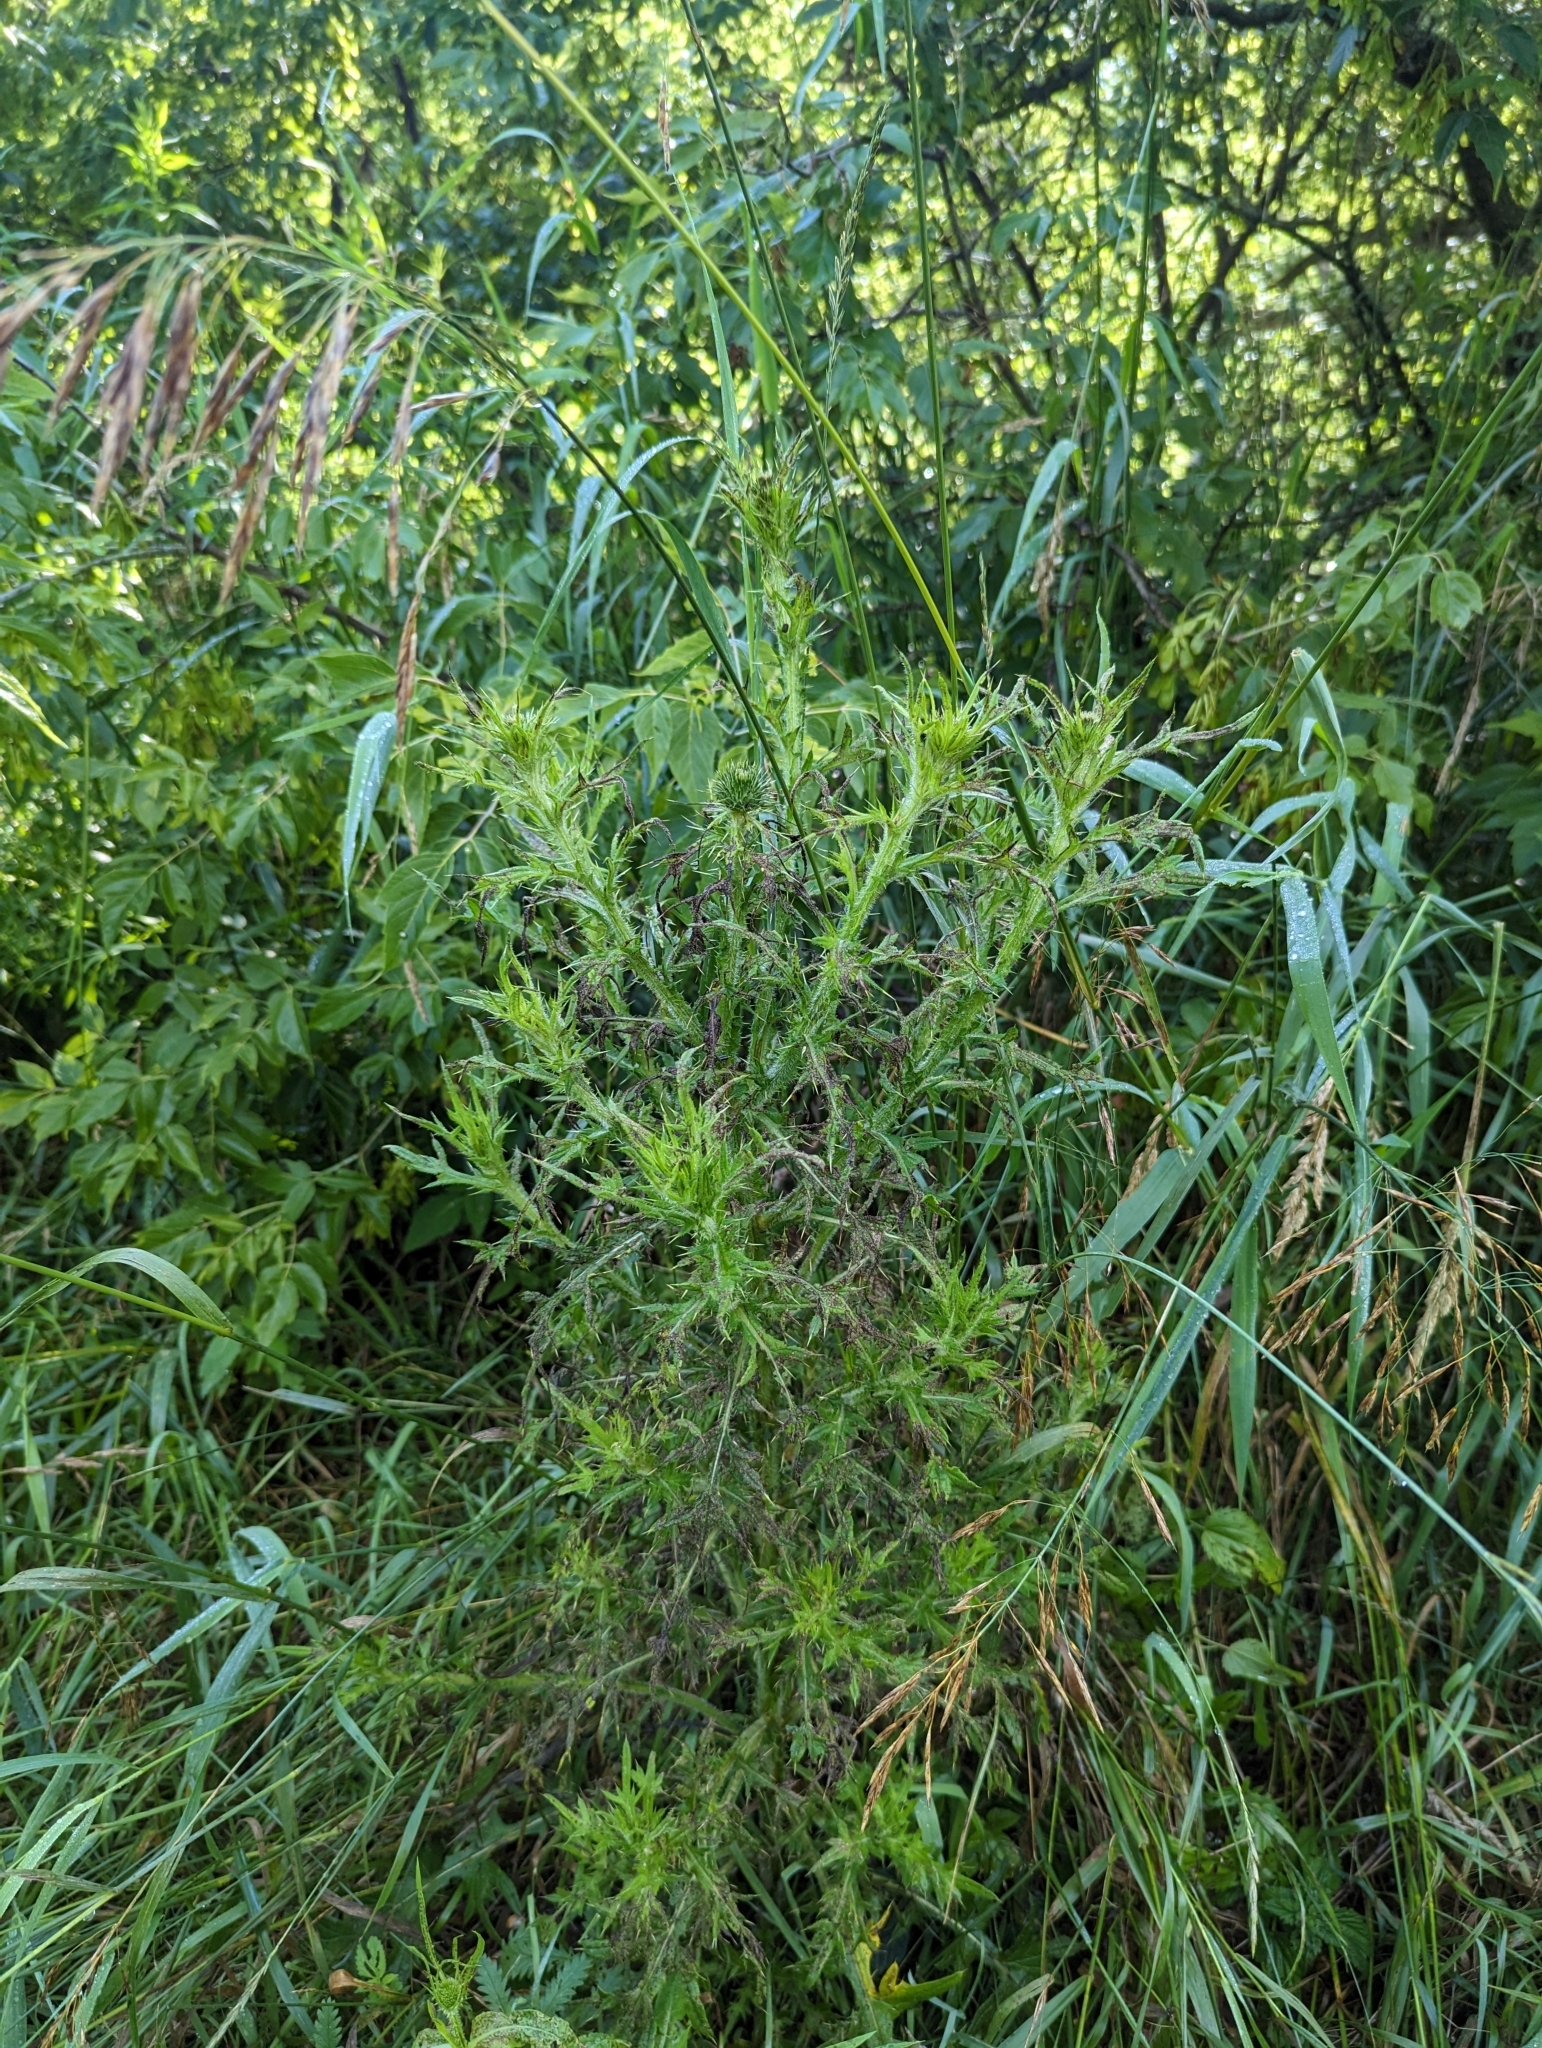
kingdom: Plantae
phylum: Tracheophyta
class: Magnoliopsida
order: Asterales
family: Asteraceae
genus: Cirsium
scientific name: Cirsium vulgare
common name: Bull thistle
